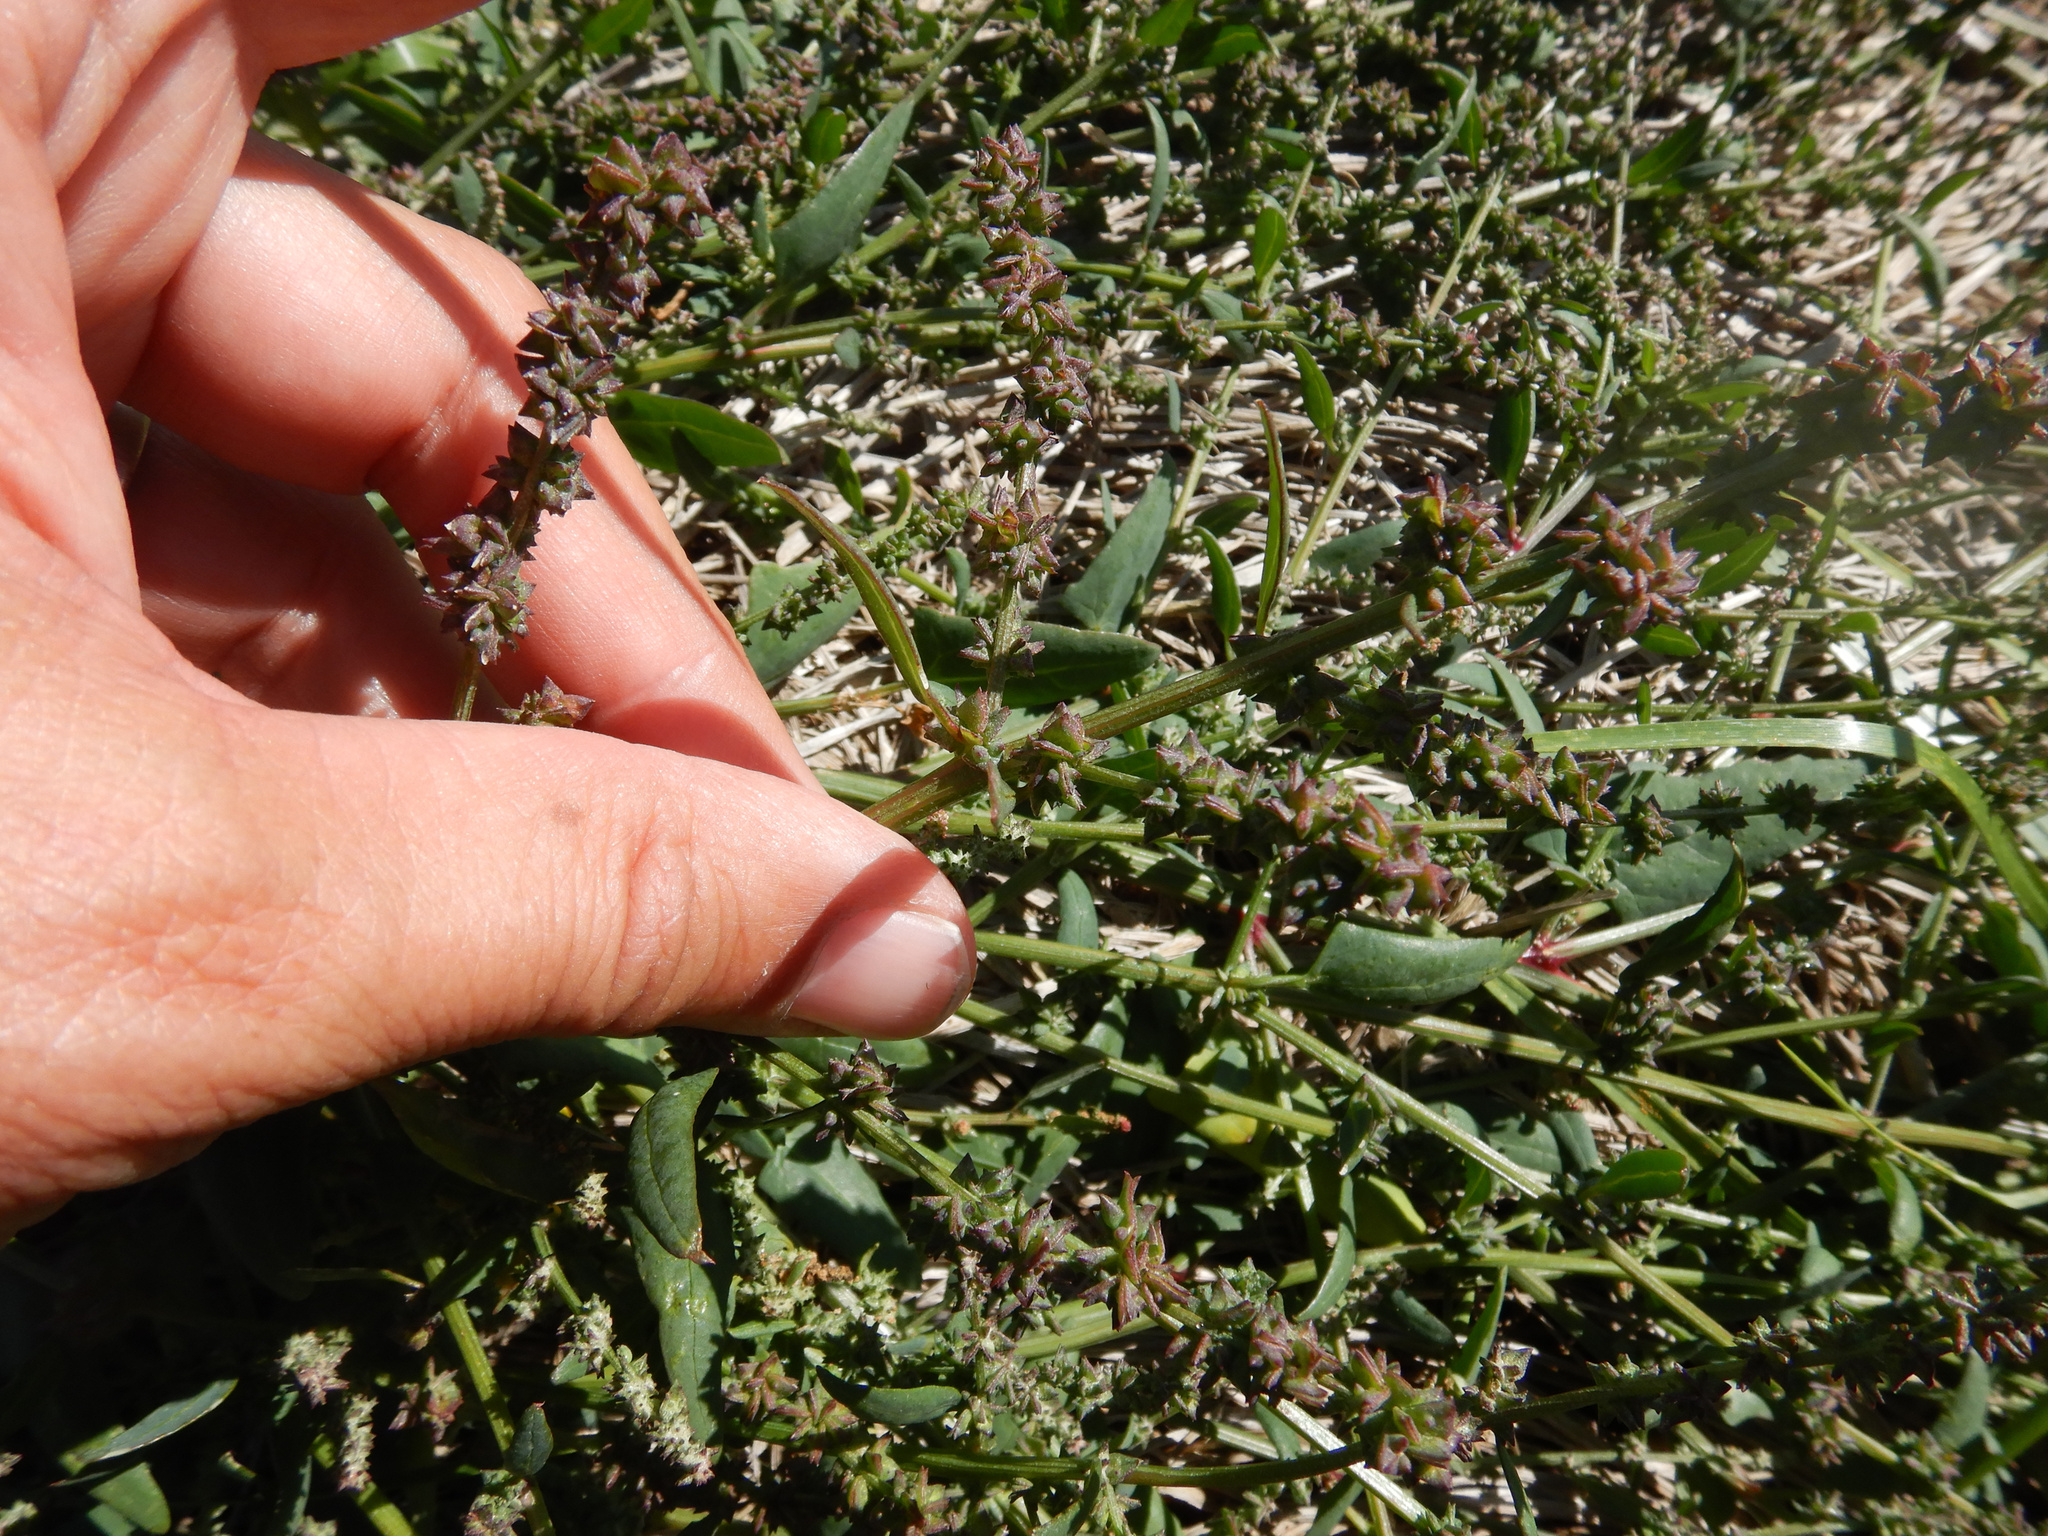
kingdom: Plantae
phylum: Tracheophyta
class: Magnoliopsida
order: Caryophyllales
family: Amaranthaceae
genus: Atriplex
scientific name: Atriplex prostrata
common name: Spear-leaved orache
